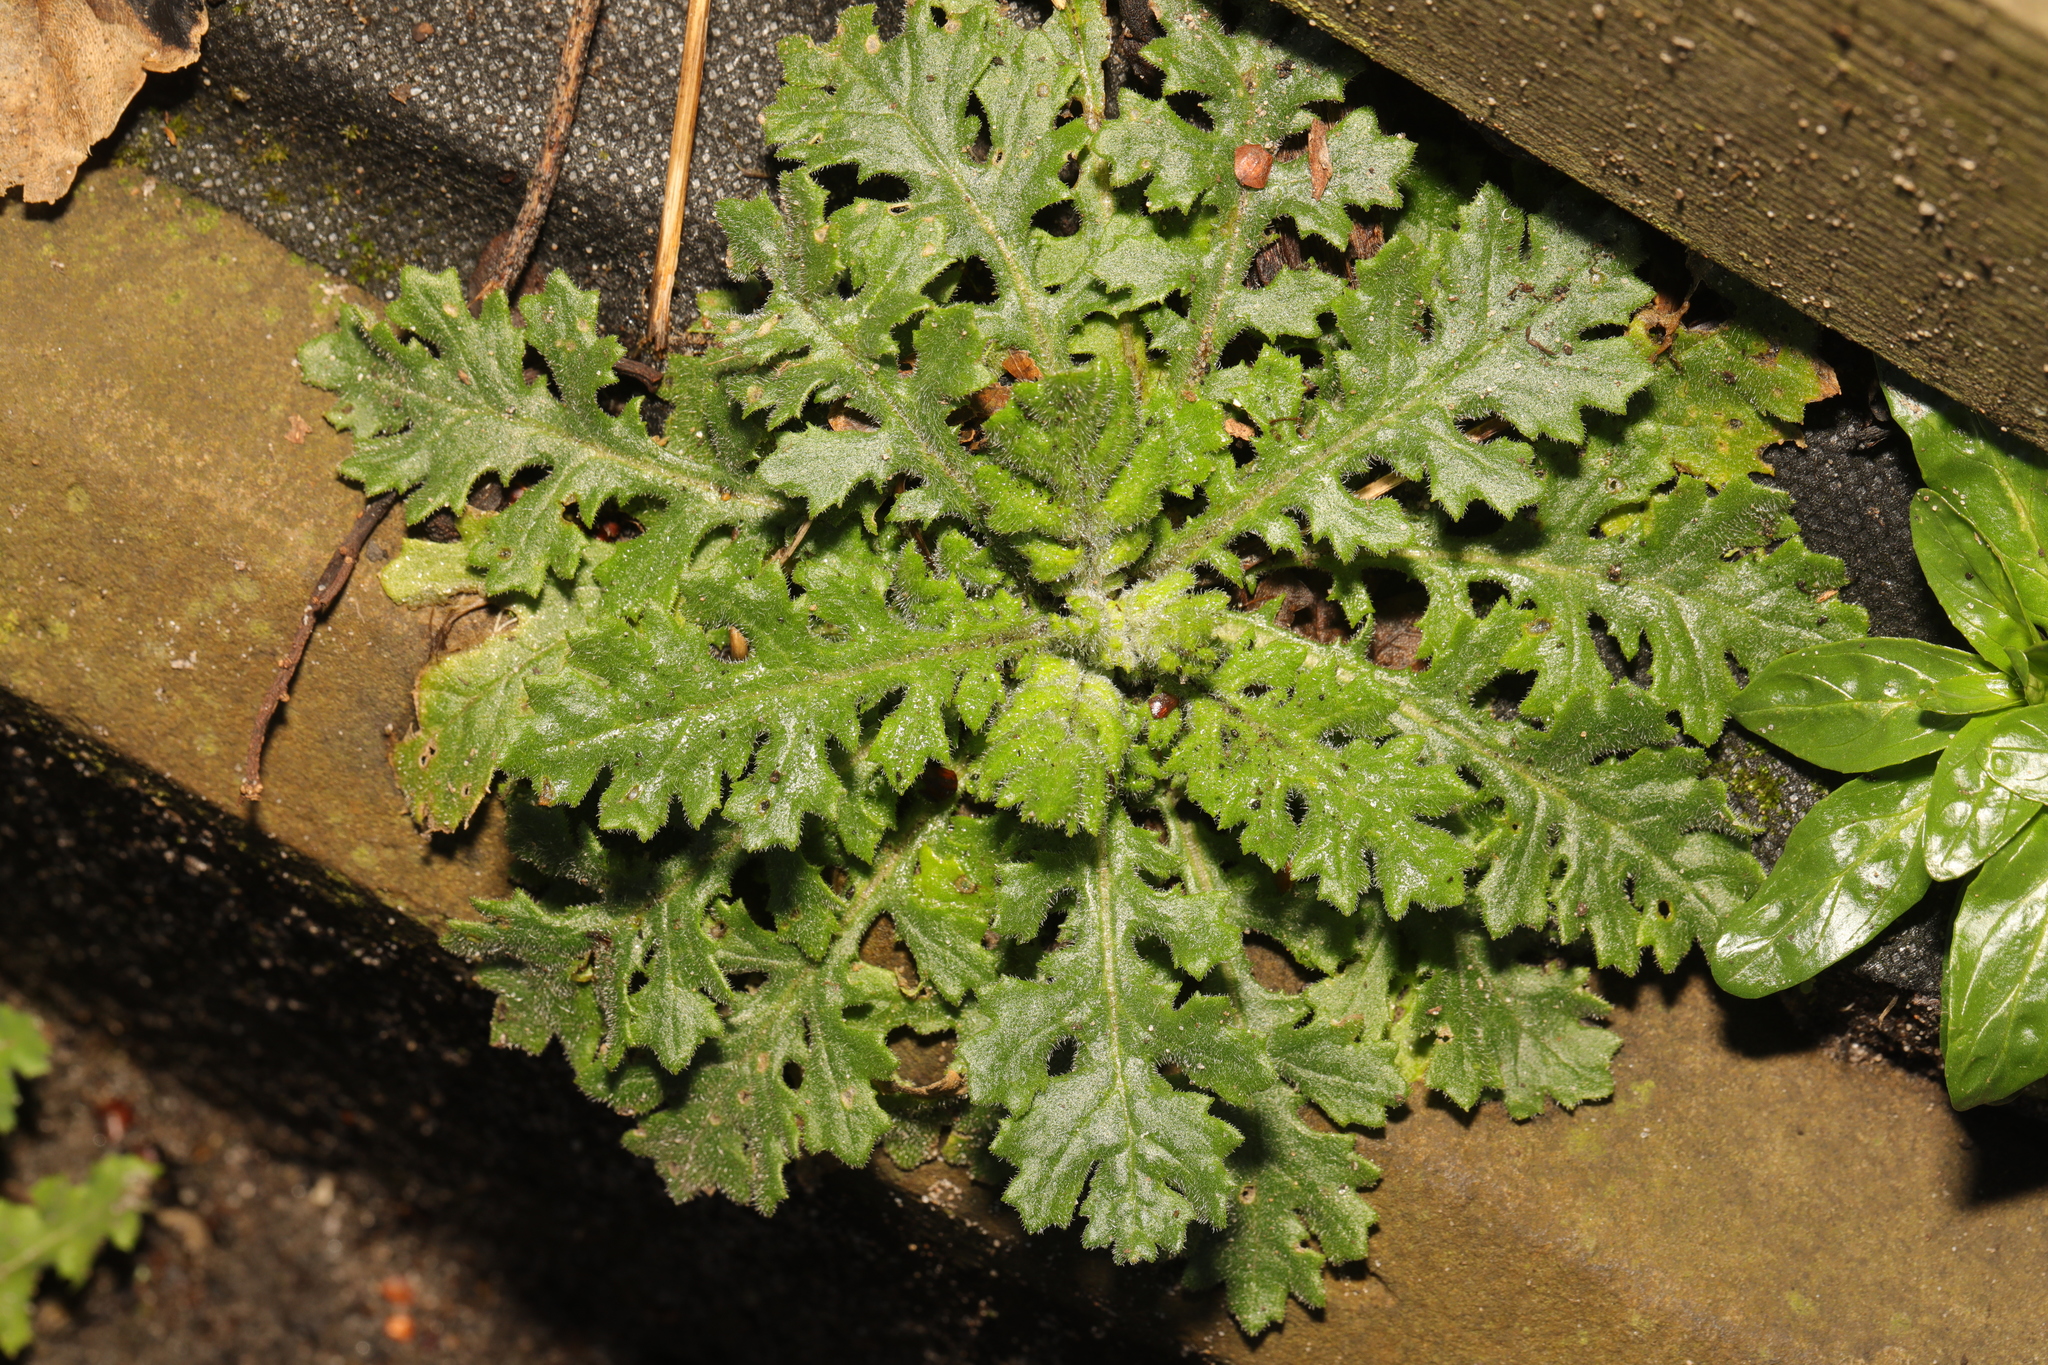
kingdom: Plantae
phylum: Tracheophyta
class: Magnoliopsida
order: Asterales
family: Asteraceae
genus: Senecio
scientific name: Senecio viscosus
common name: Sticky groundsel
